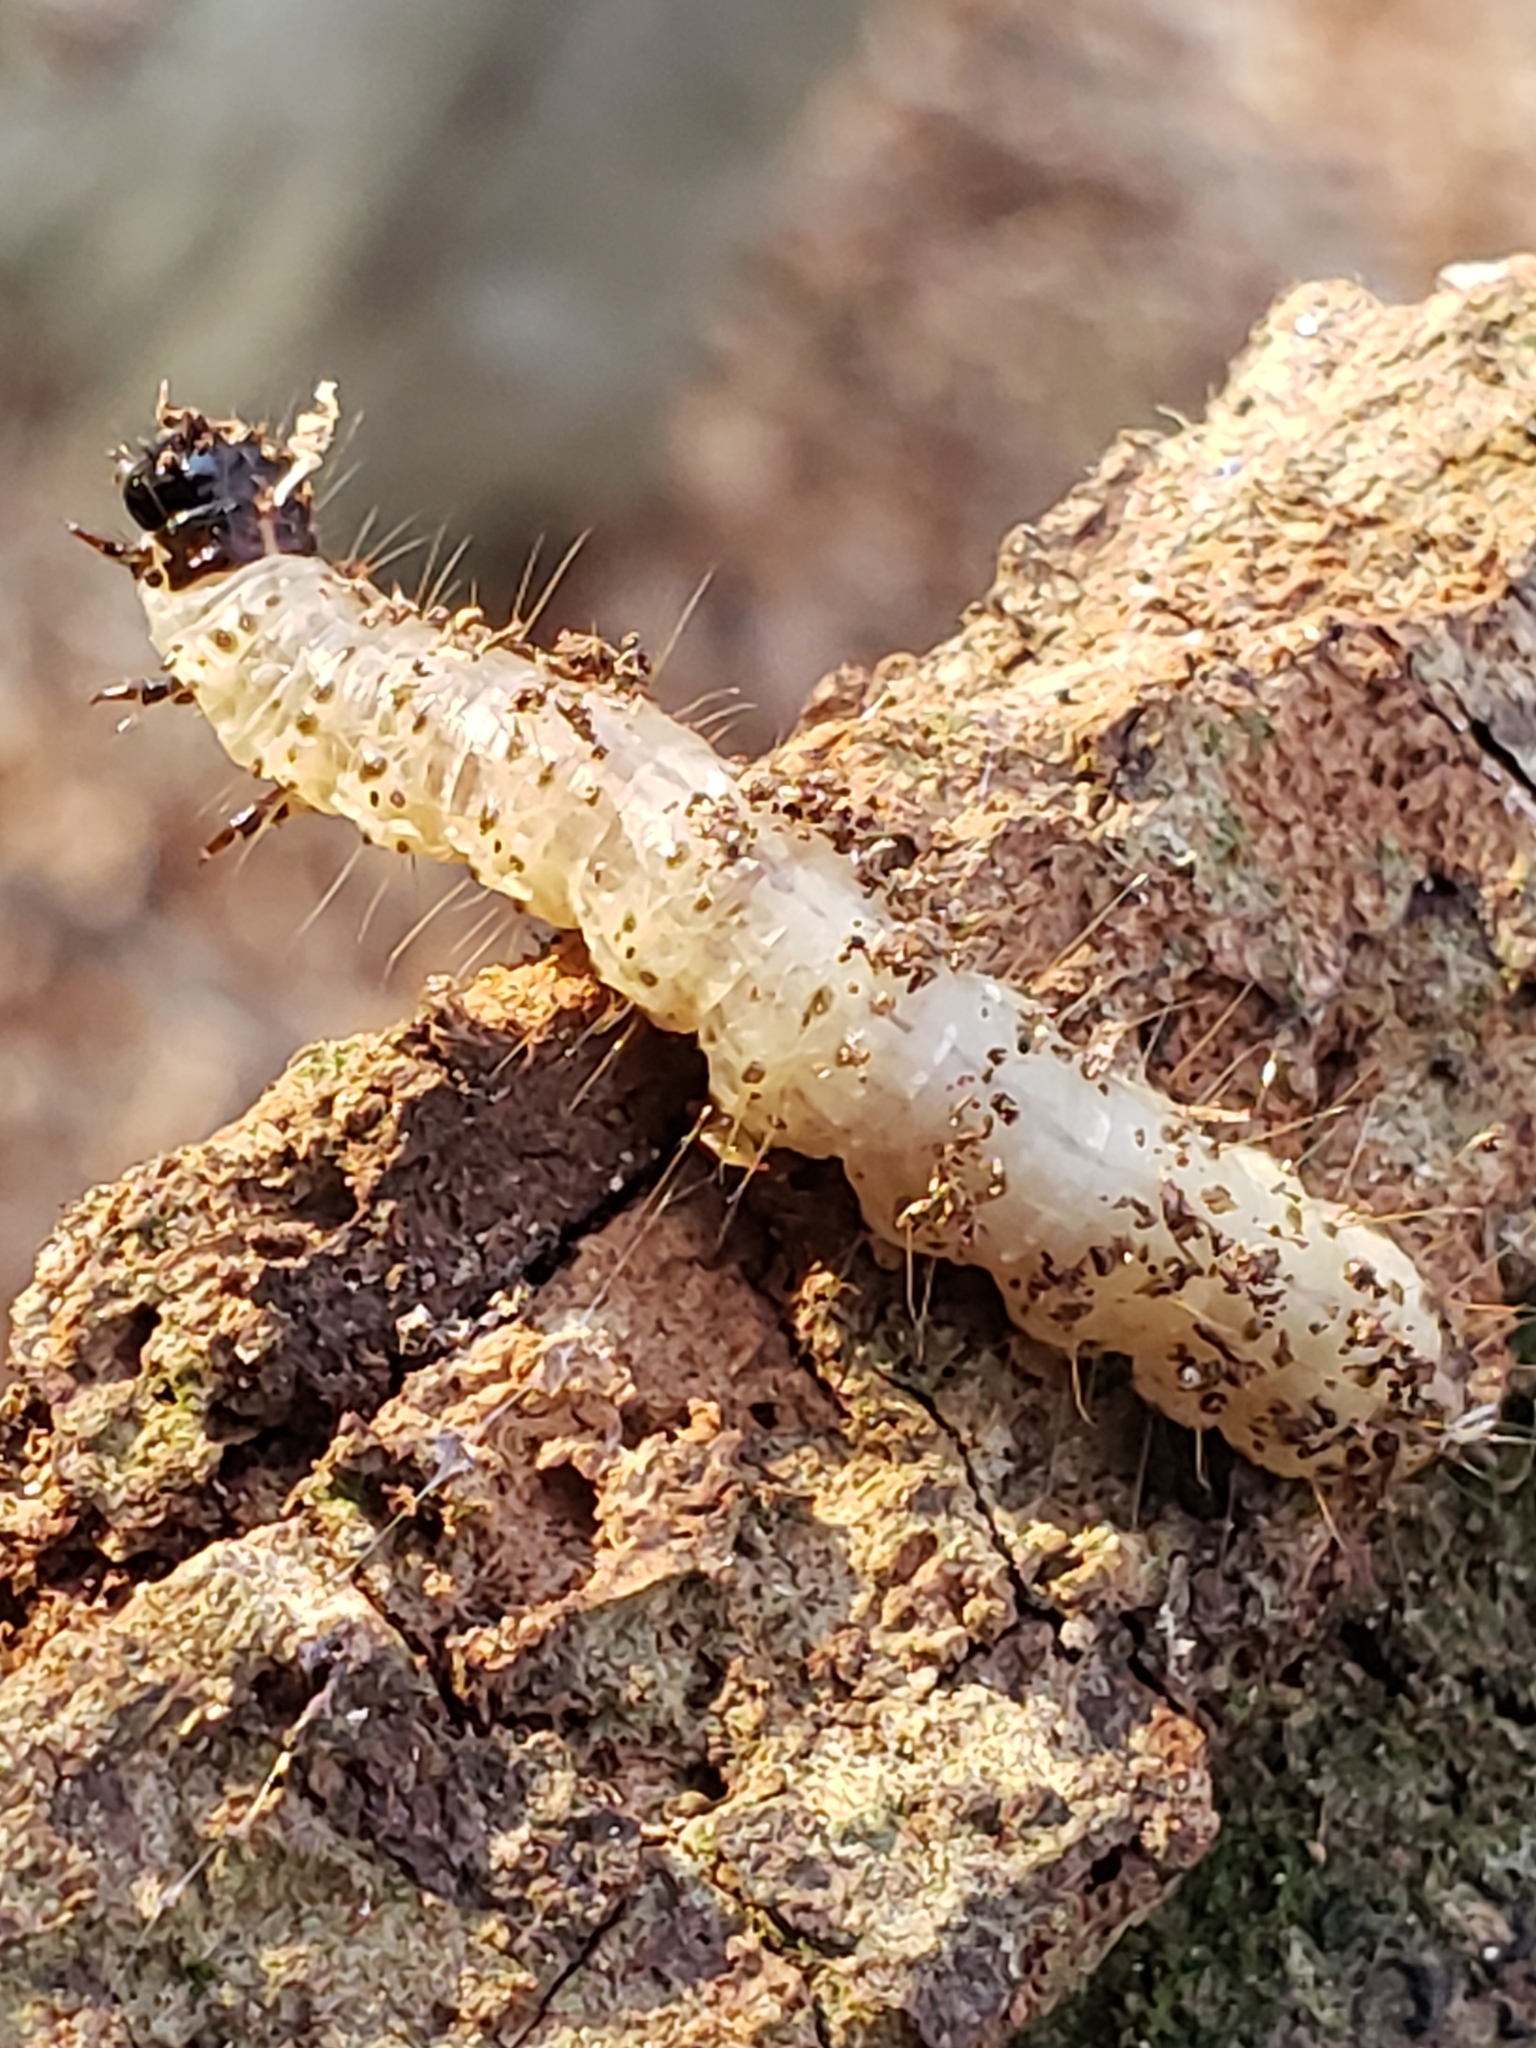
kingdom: Animalia
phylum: Arthropoda
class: Insecta
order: Lepidoptera
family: Erebidae
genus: Scolecocampa
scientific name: Scolecocampa liburna
